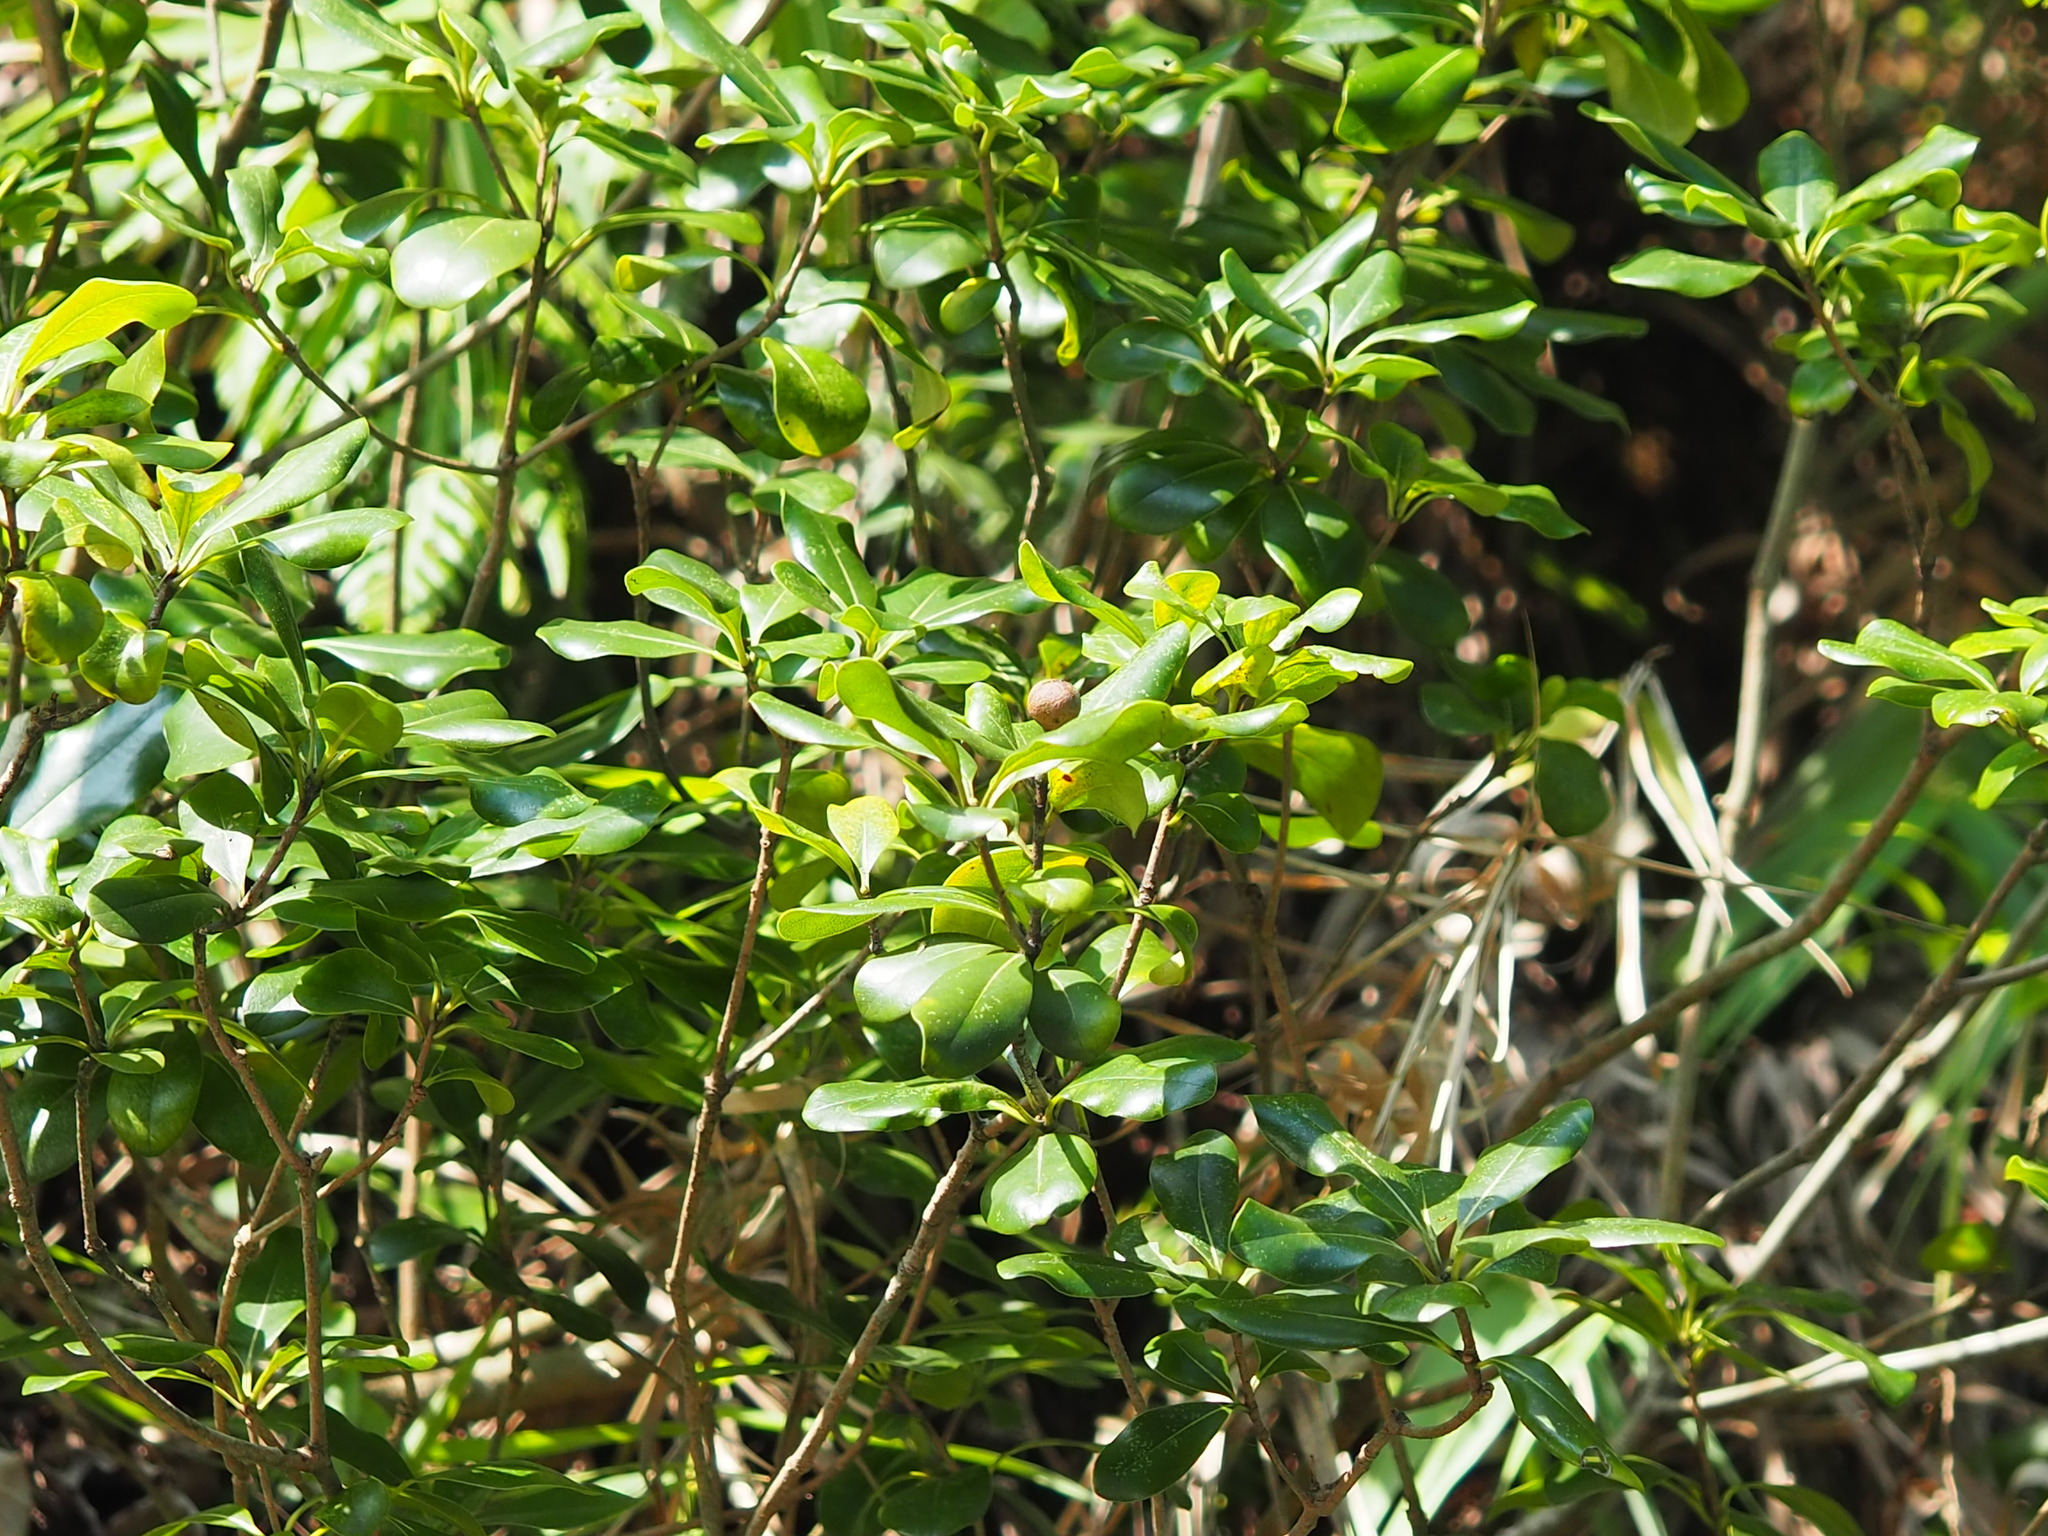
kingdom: Plantae
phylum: Tracheophyta
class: Magnoliopsida
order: Apiales
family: Pittosporaceae
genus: Pittosporum
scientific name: Pittosporum tobira
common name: Japanese cheesewood
